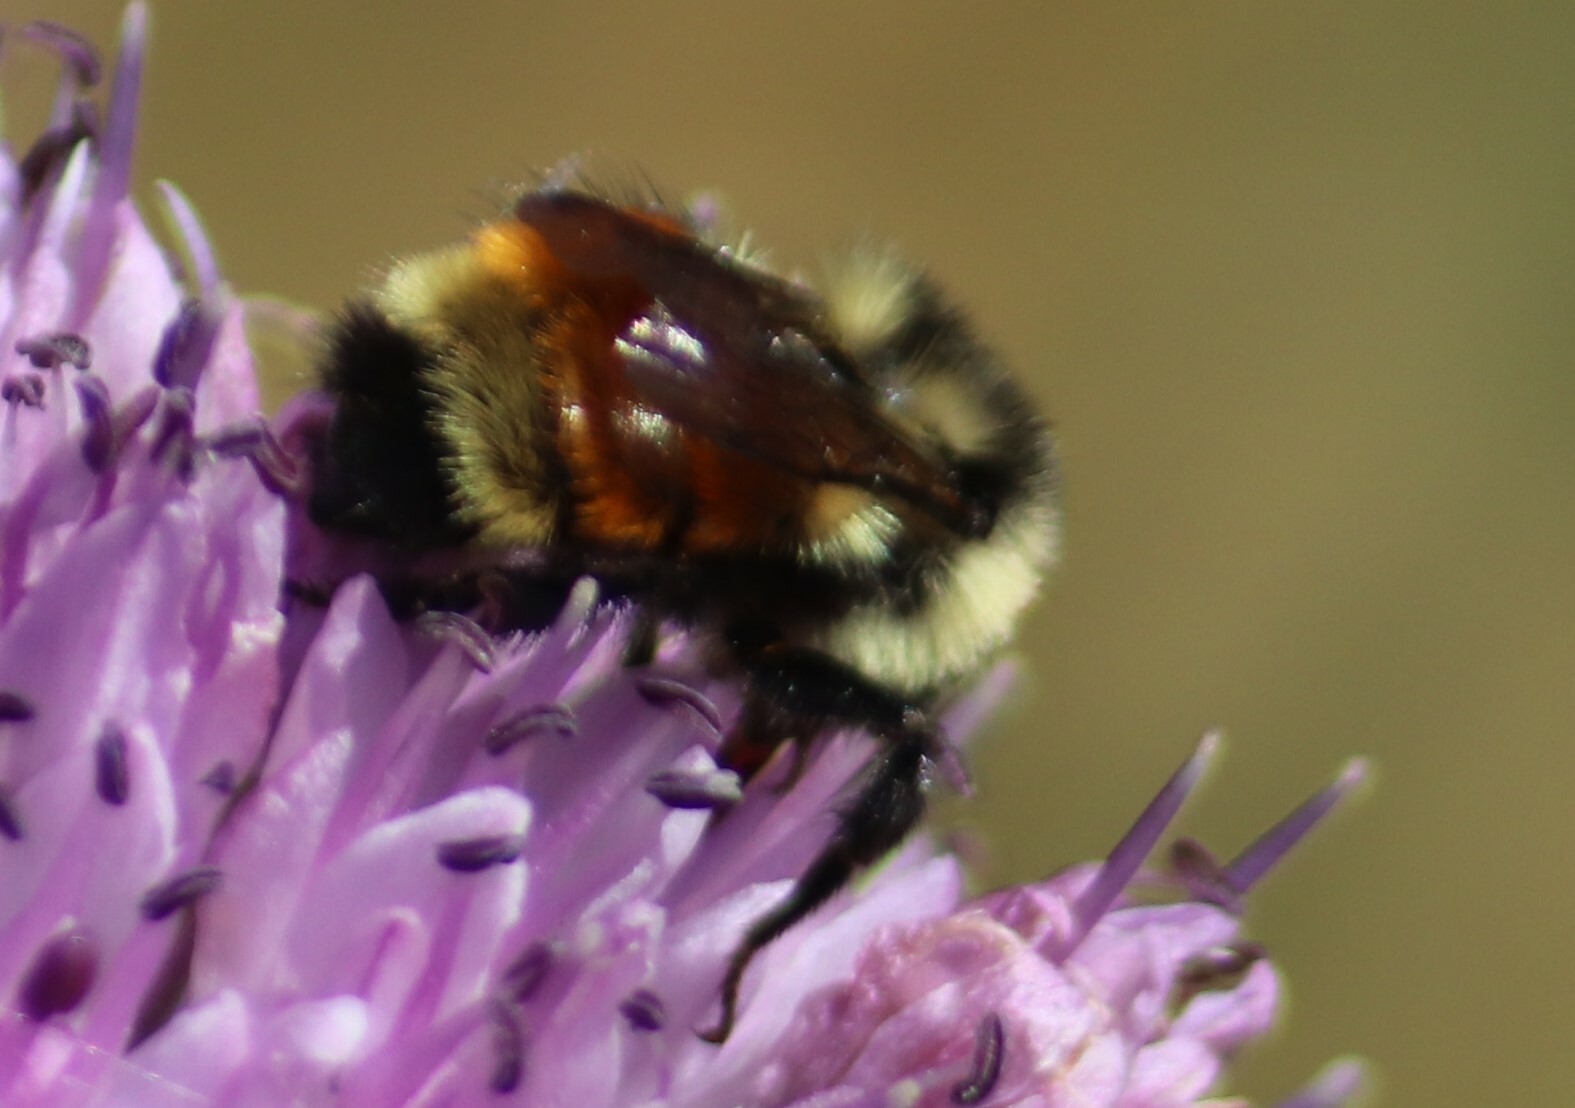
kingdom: Animalia
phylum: Arthropoda
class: Insecta
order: Hymenoptera
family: Apidae
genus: Bombus
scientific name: Bombus ternarius
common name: Tri-colored bumble bee
